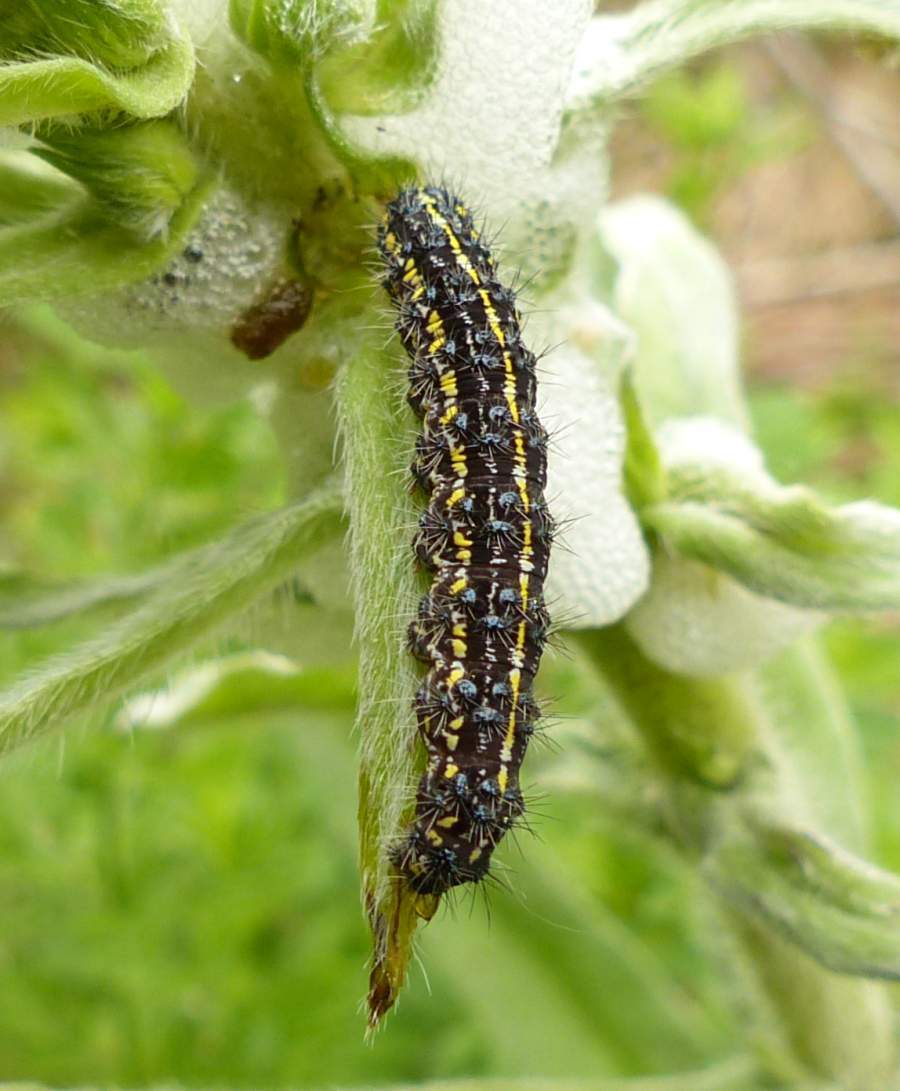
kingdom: Animalia
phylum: Arthropoda
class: Insecta
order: Lepidoptera
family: Erebidae
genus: Haploa
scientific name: Haploa lecontei
